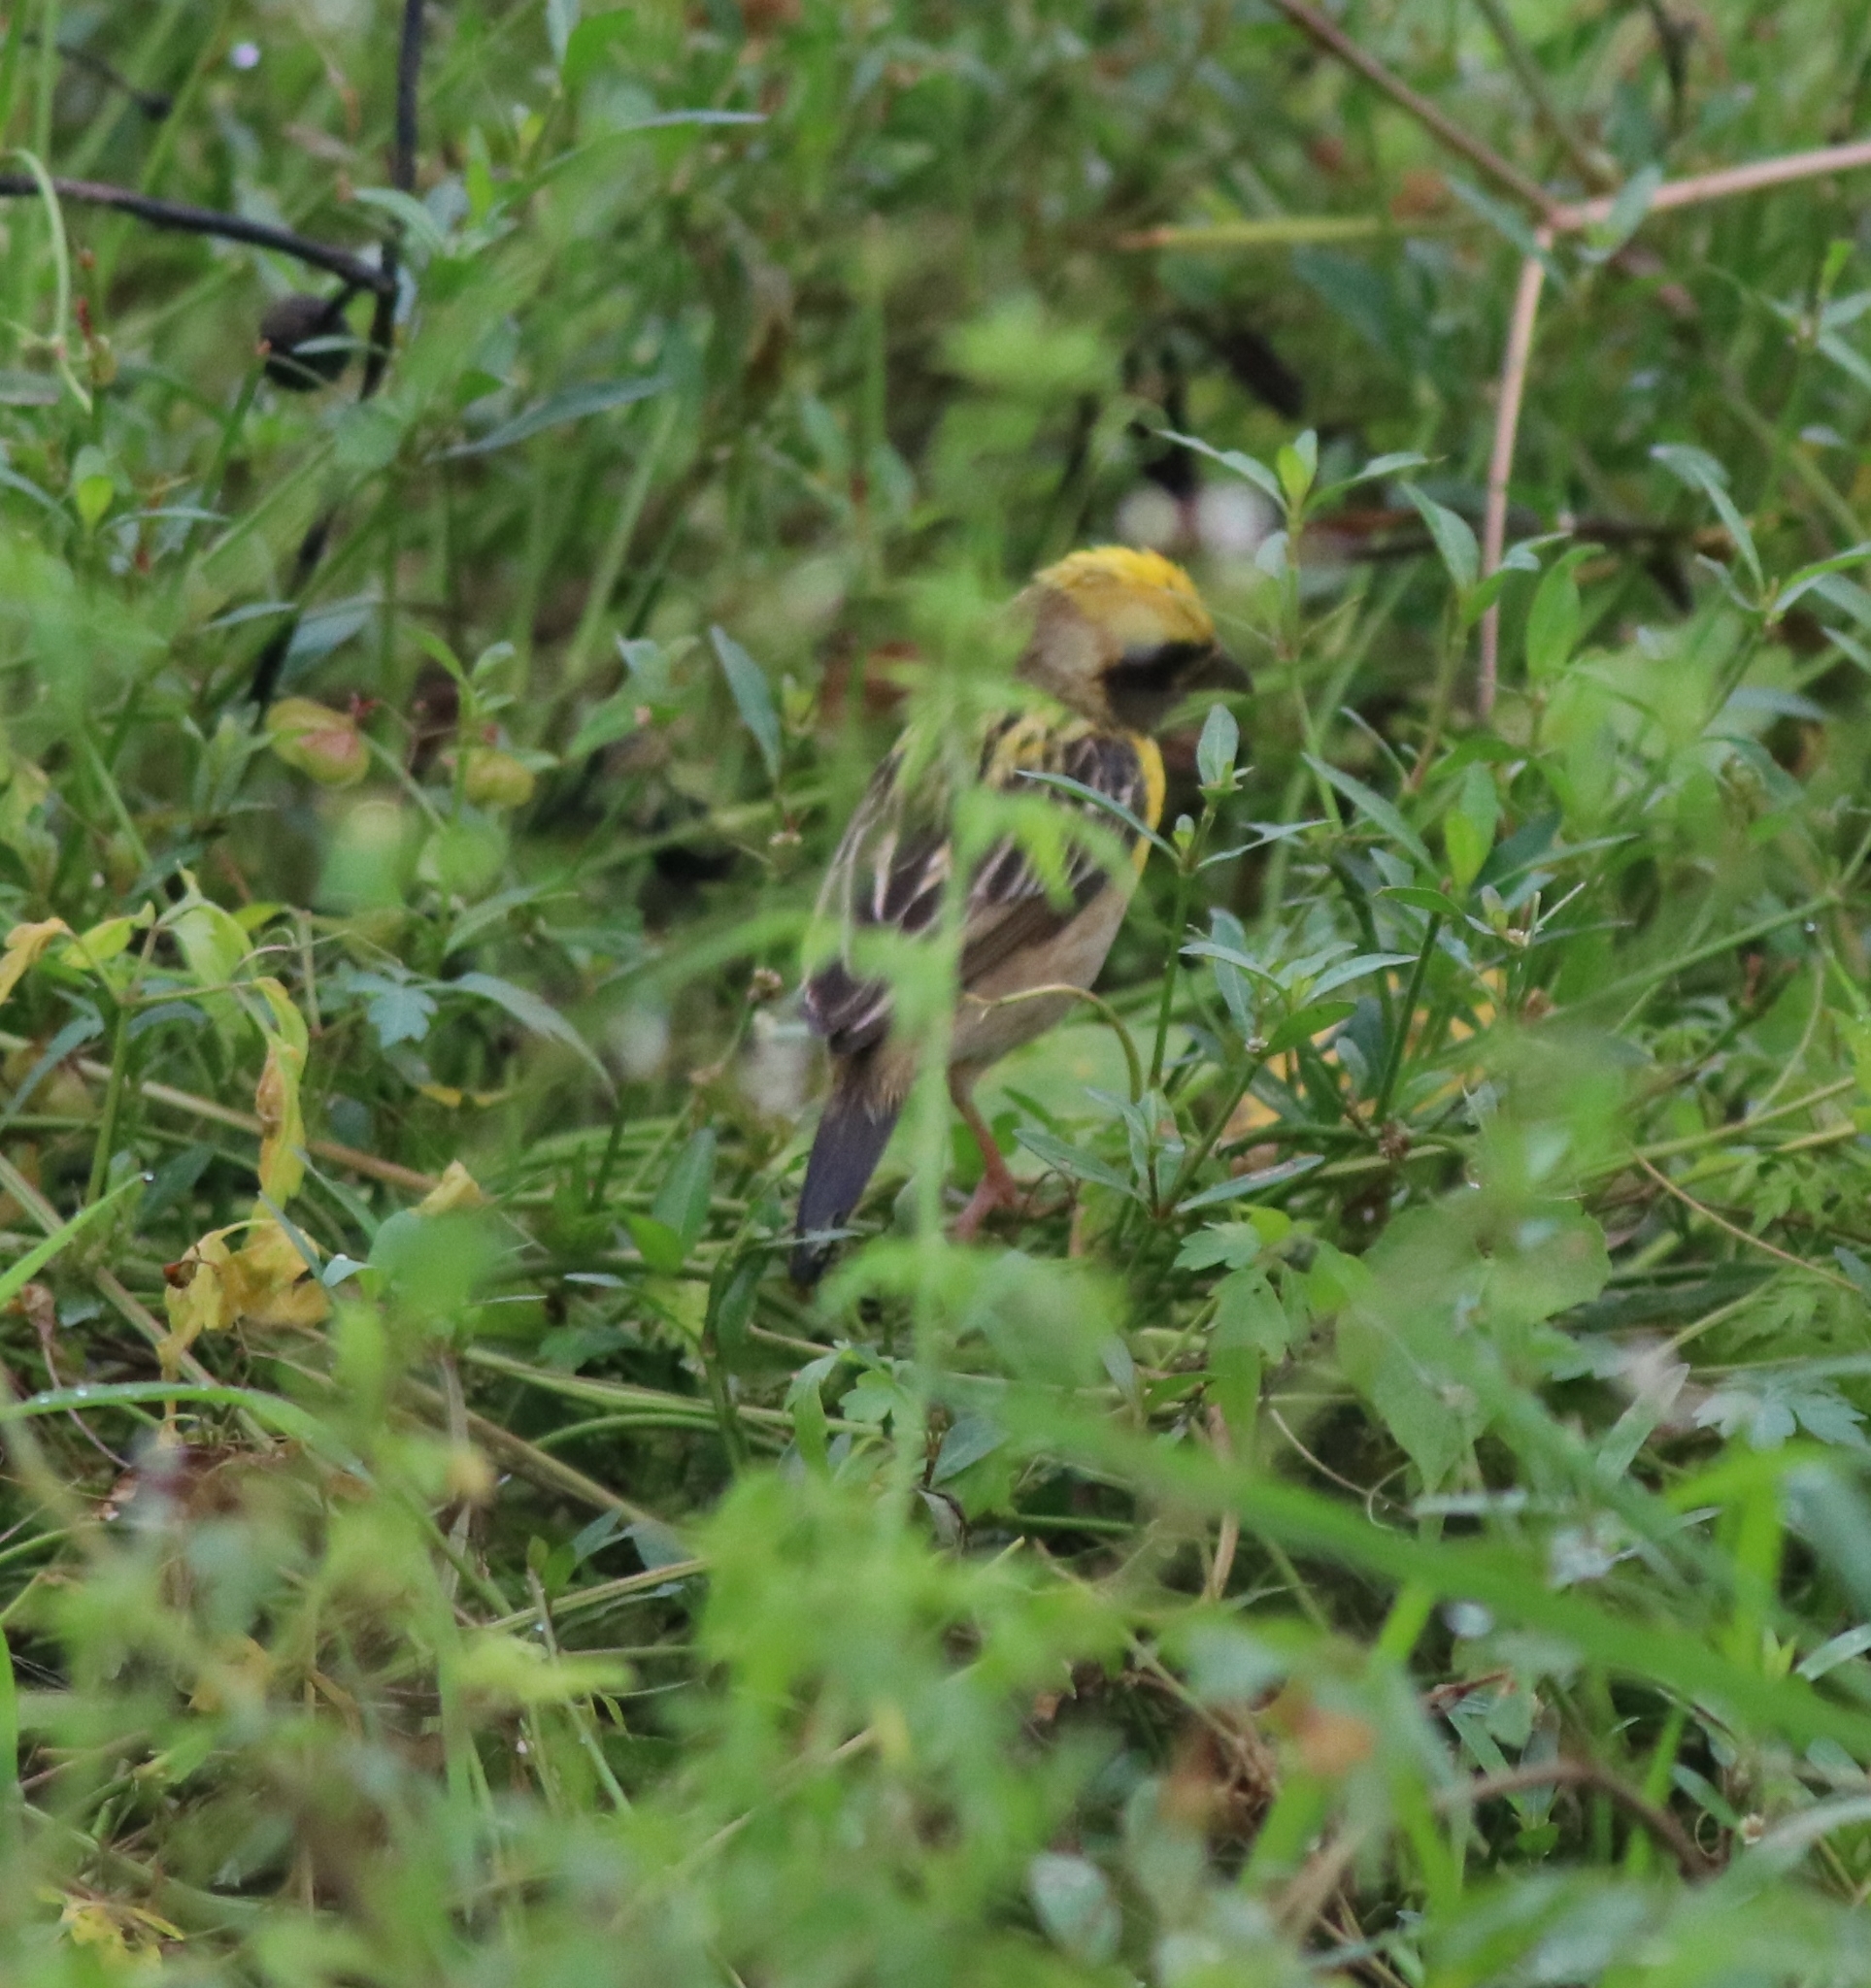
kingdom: Animalia
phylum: Chordata
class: Aves
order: Passeriformes
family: Ploceidae
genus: Ploceus
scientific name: Ploceus philippinus
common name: Baya weaver
